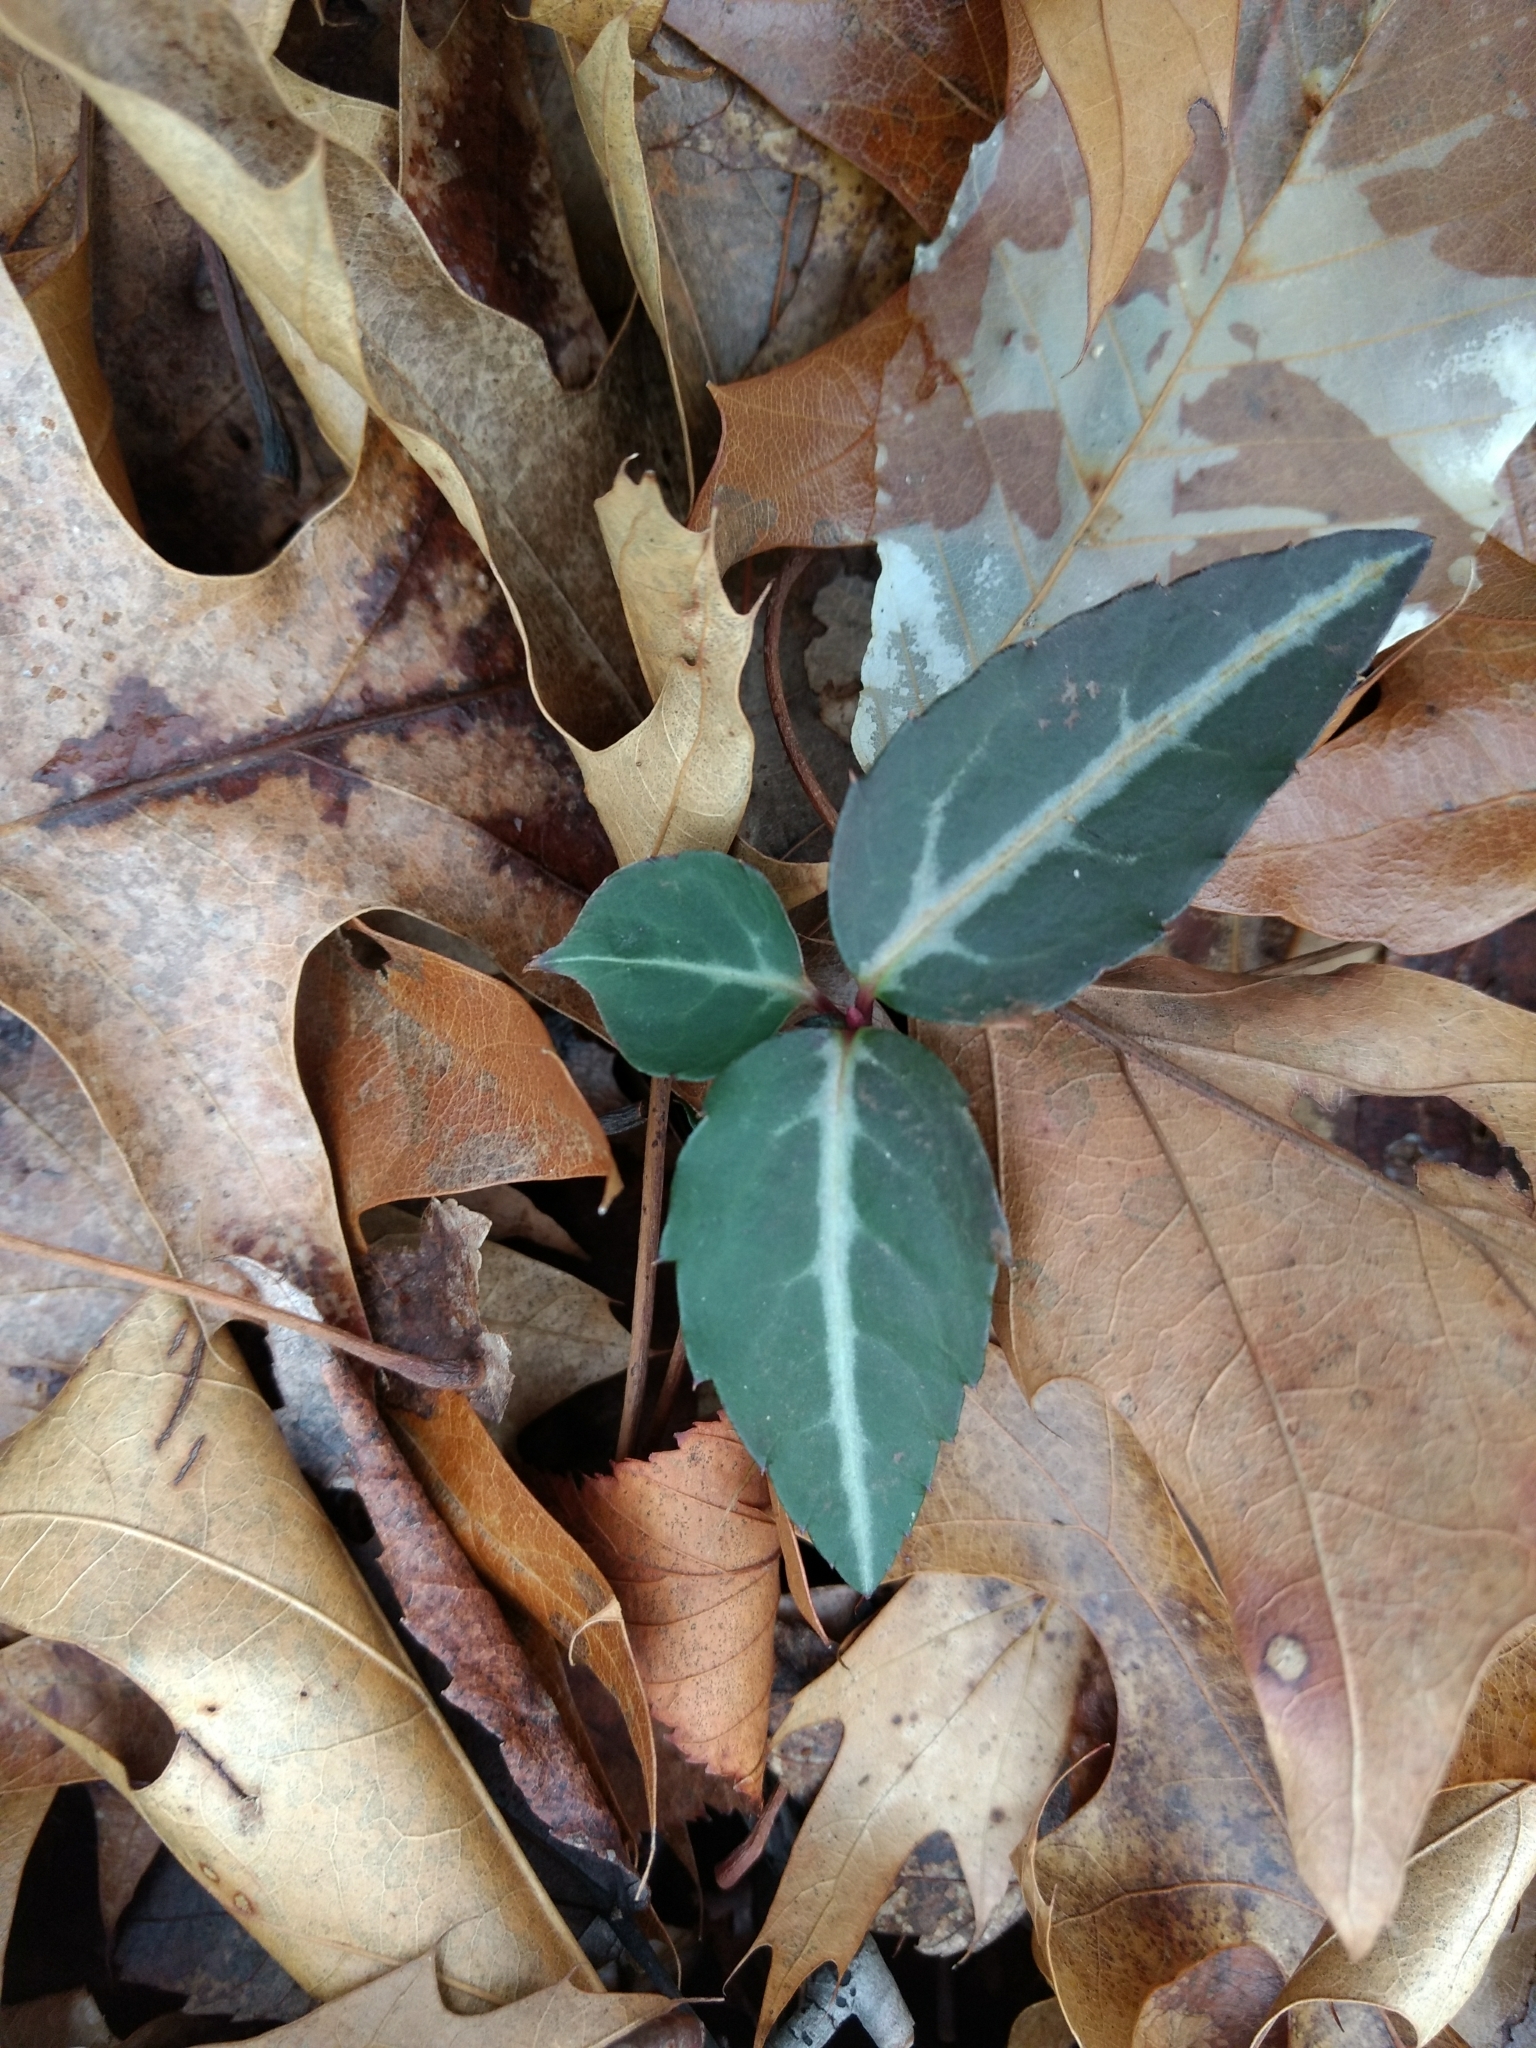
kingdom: Plantae
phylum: Tracheophyta
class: Magnoliopsida
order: Ericales
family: Ericaceae
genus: Chimaphila
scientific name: Chimaphila maculata
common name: Spotted pipsissewa
